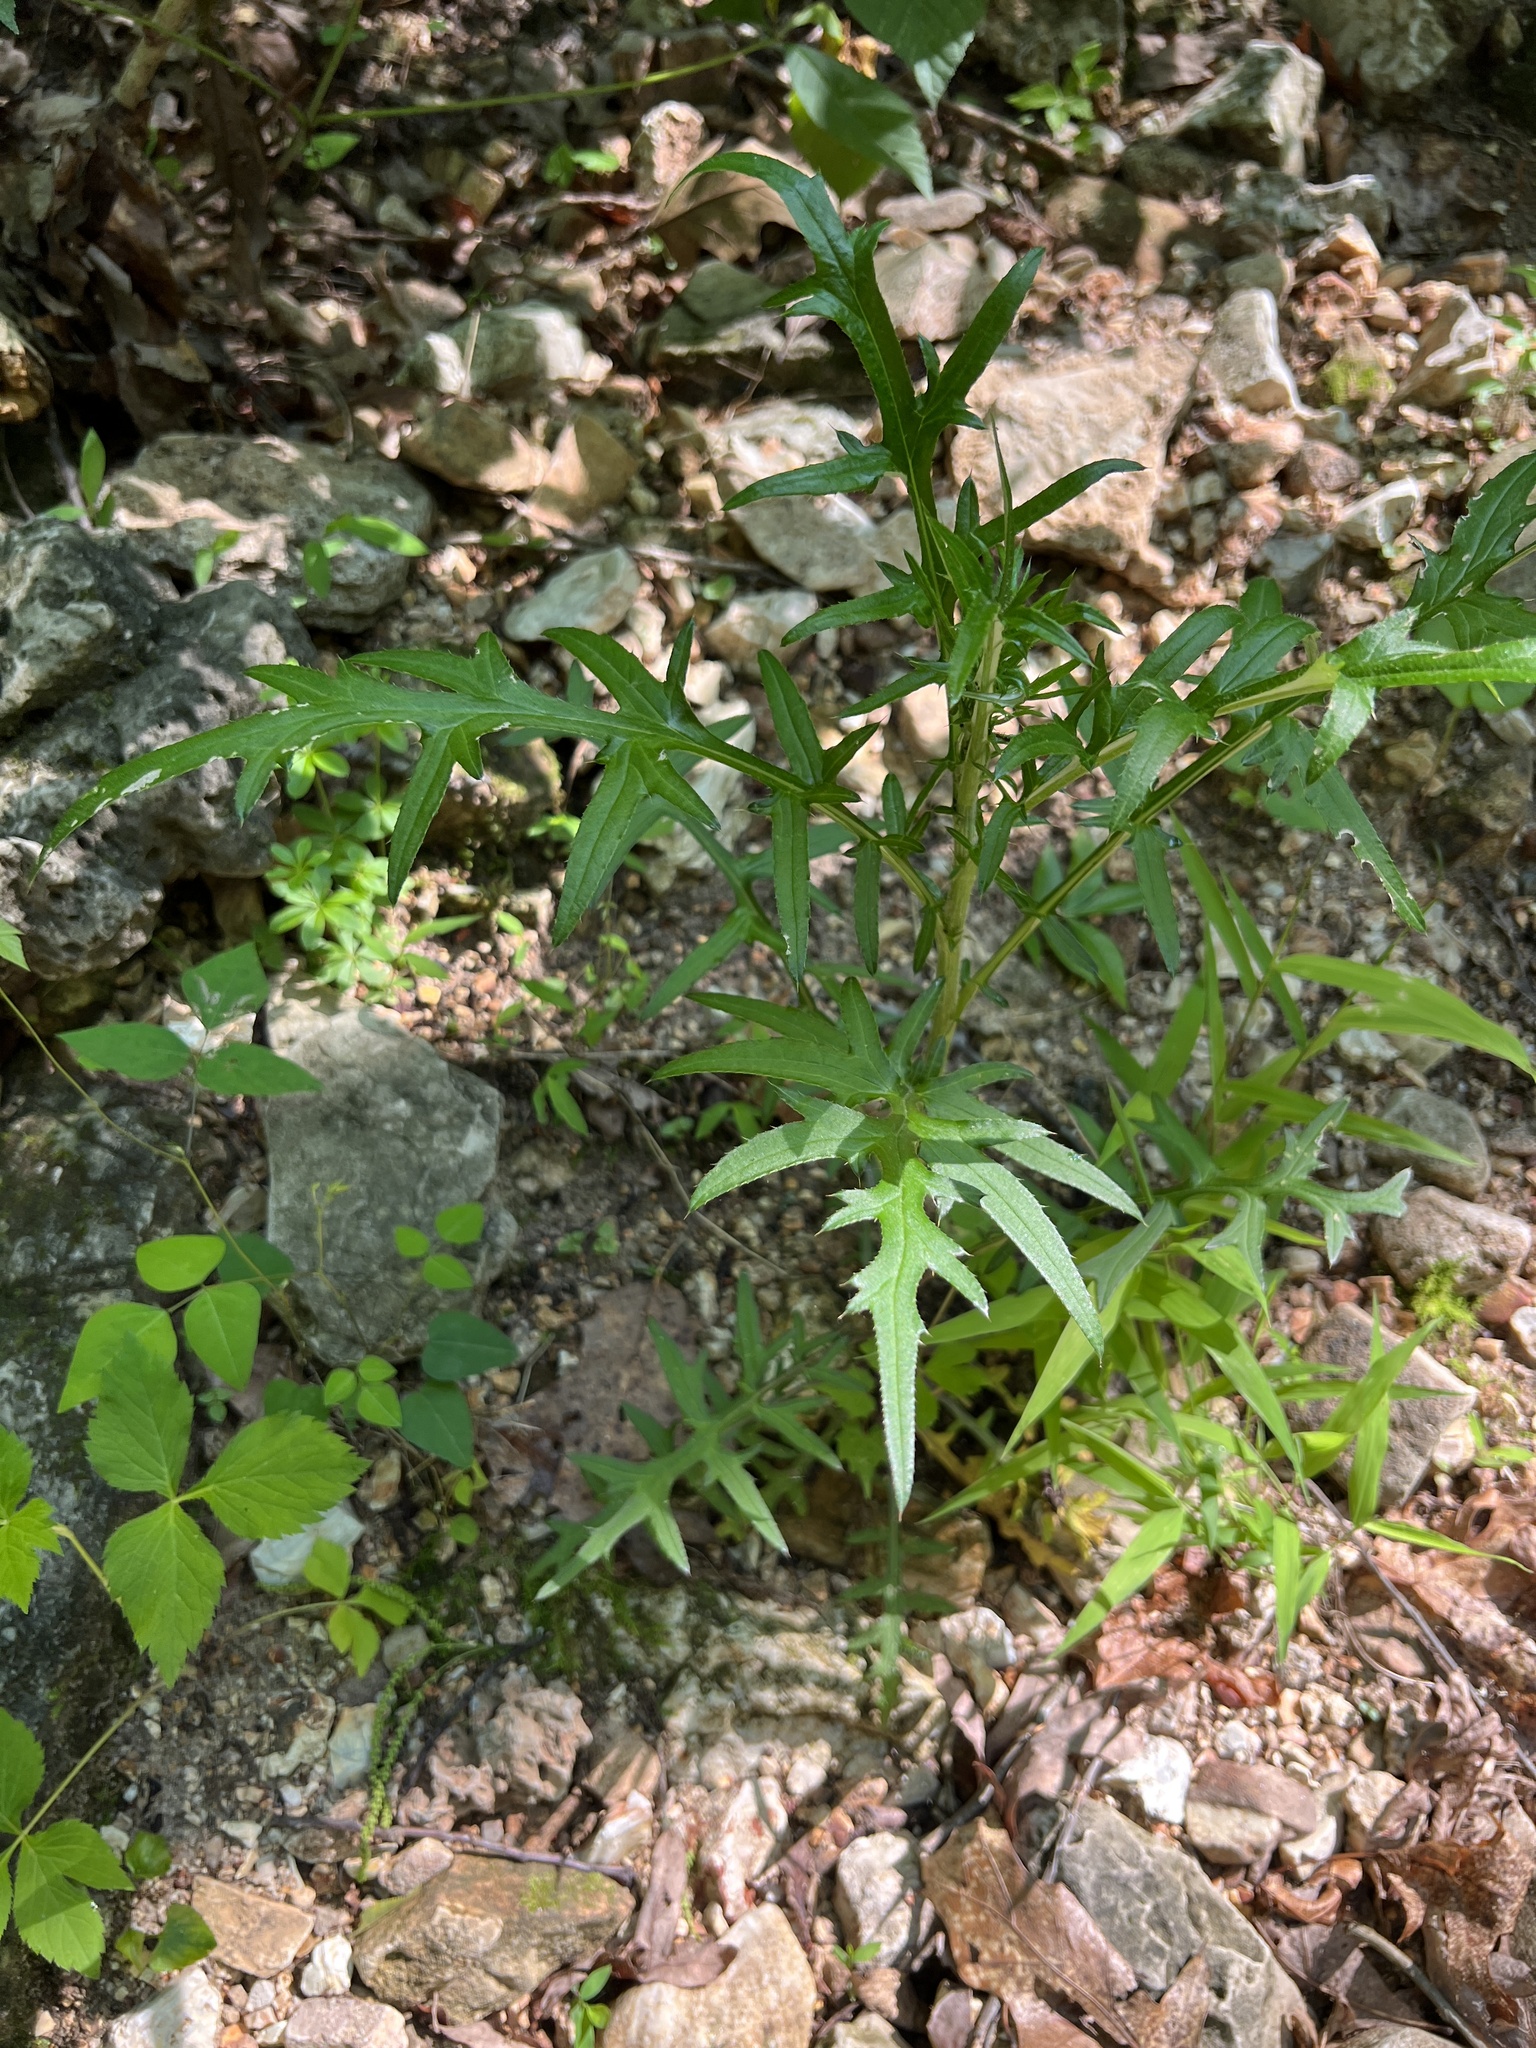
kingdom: Plantae
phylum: Tracheophyta
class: Magnoliopsida
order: Asterales
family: Asteraceae
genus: Cirsium
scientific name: Cirsium muticum
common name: Dunce-nettle
